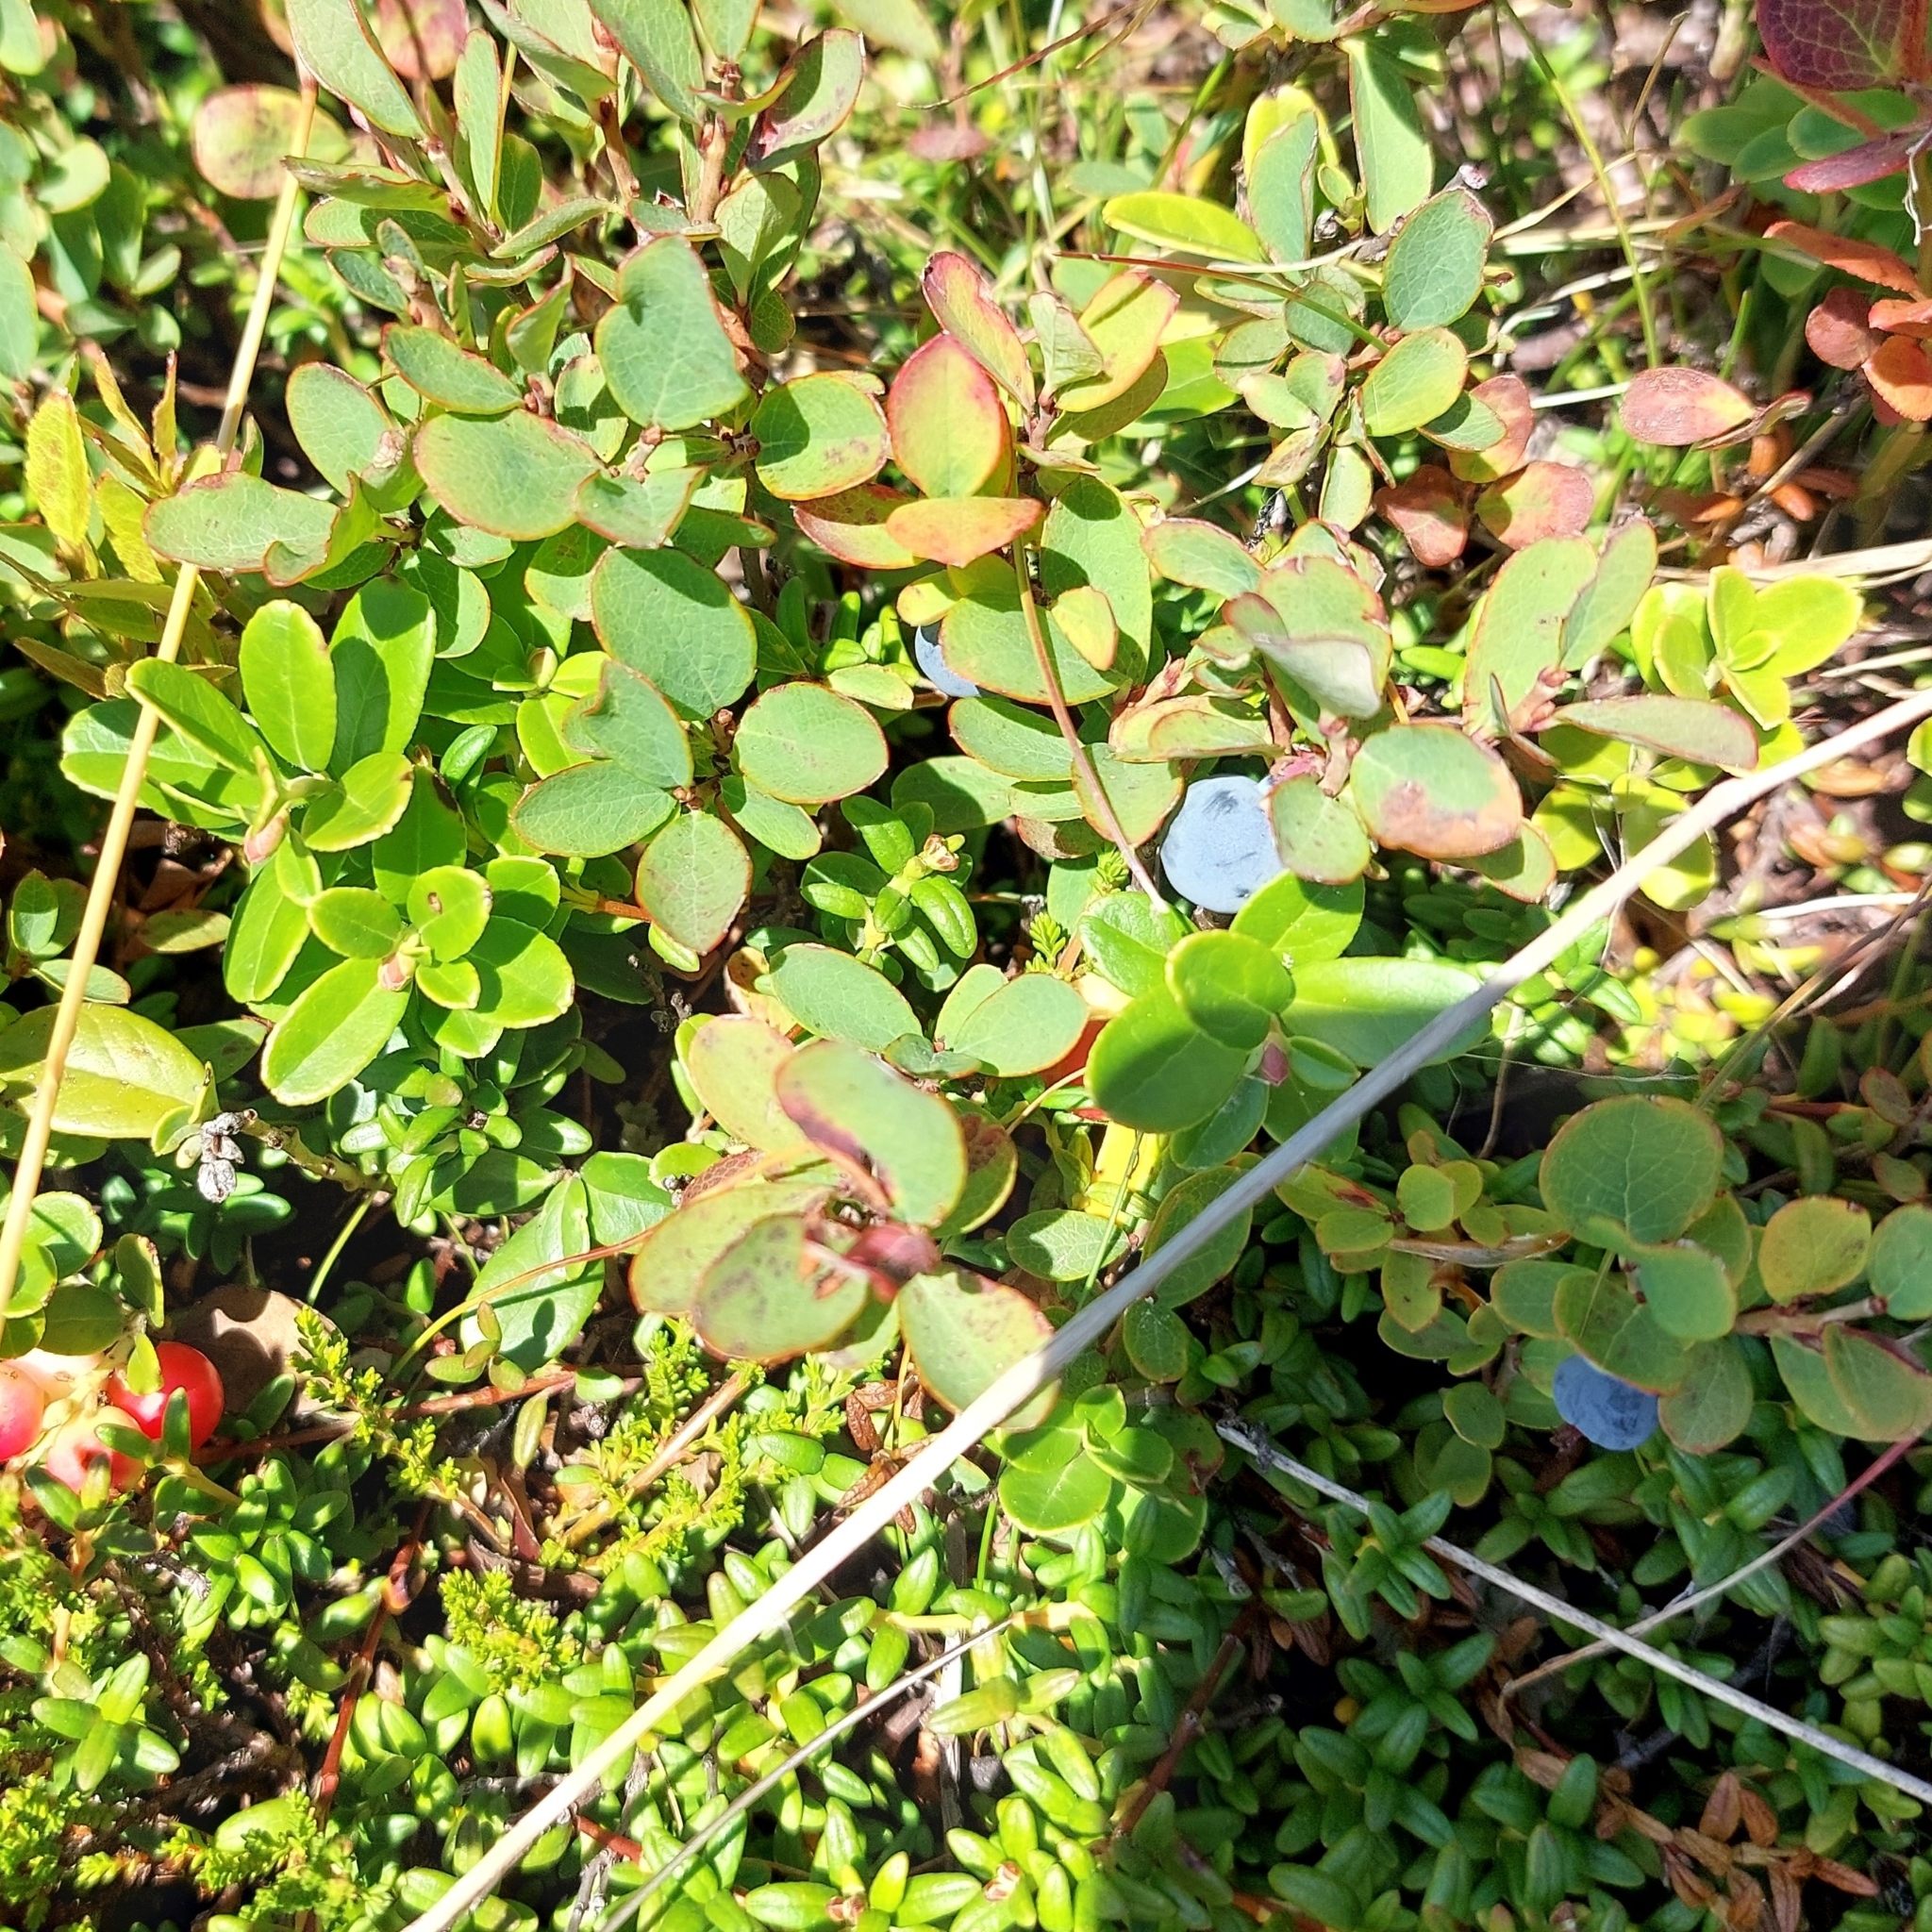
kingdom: Plantae
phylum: Tracheophyta
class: Magnoliopsida
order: Ericales
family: Ericaceae
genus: Vaccinium
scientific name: Vaccinium uliginosum
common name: Bog bilberry
